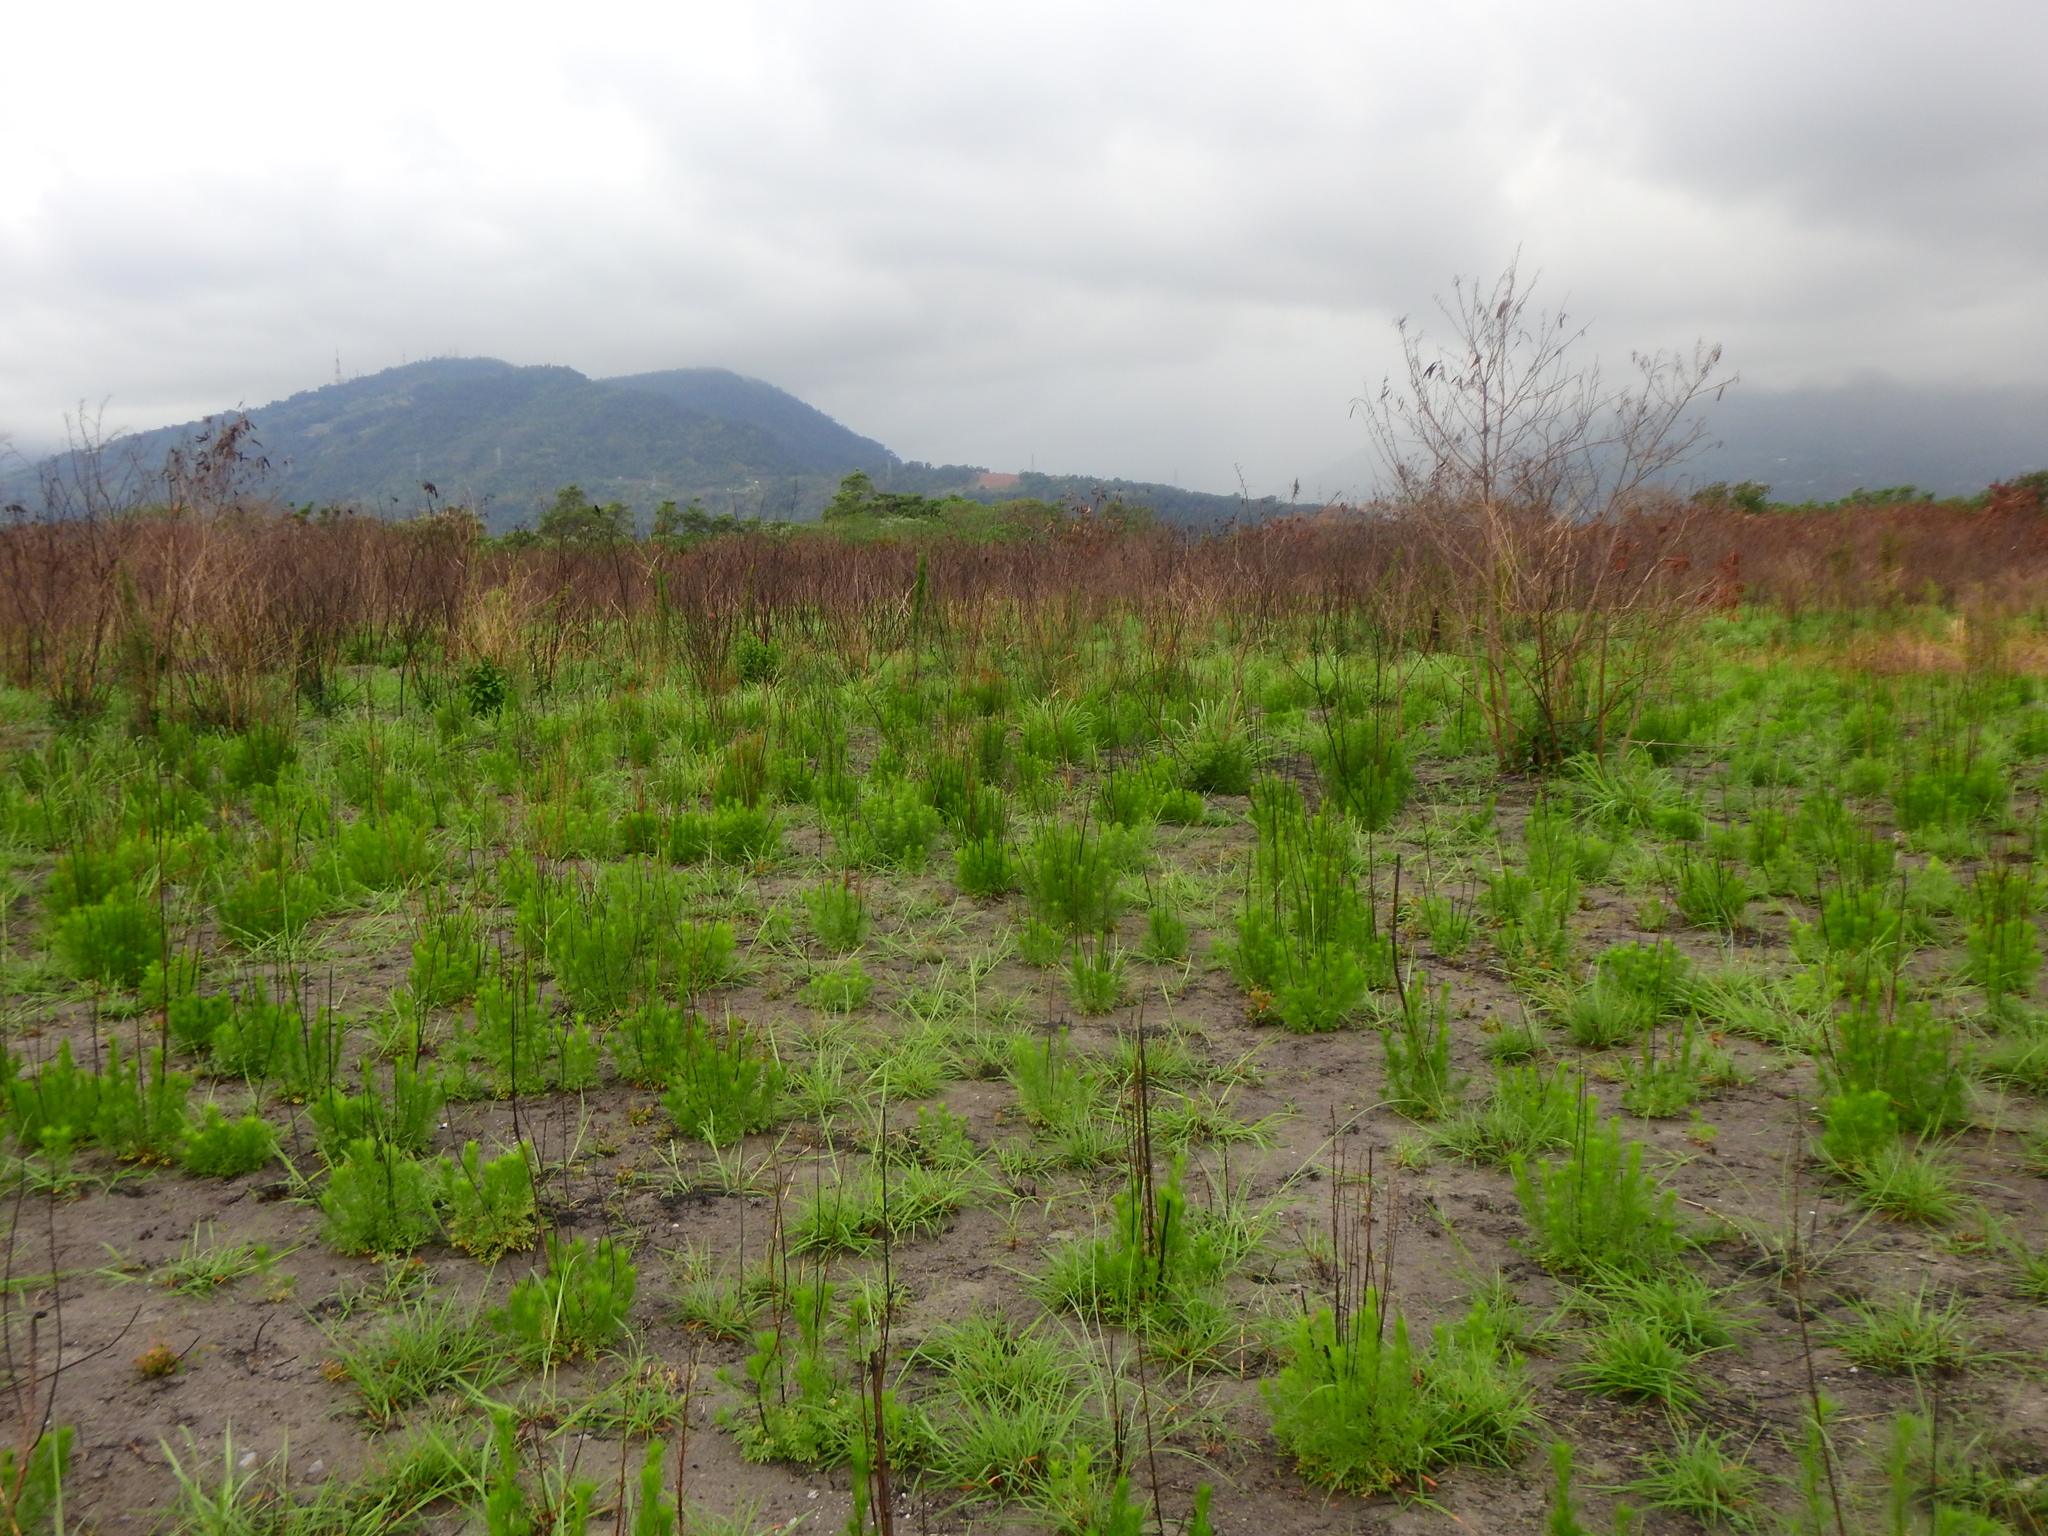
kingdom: Plantae
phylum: Tracheophyta
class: Magnoliopsida
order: Asterales
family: Asteraceae
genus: Artemisia
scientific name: Artemisia capillaris
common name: Yin-chen wormwood
